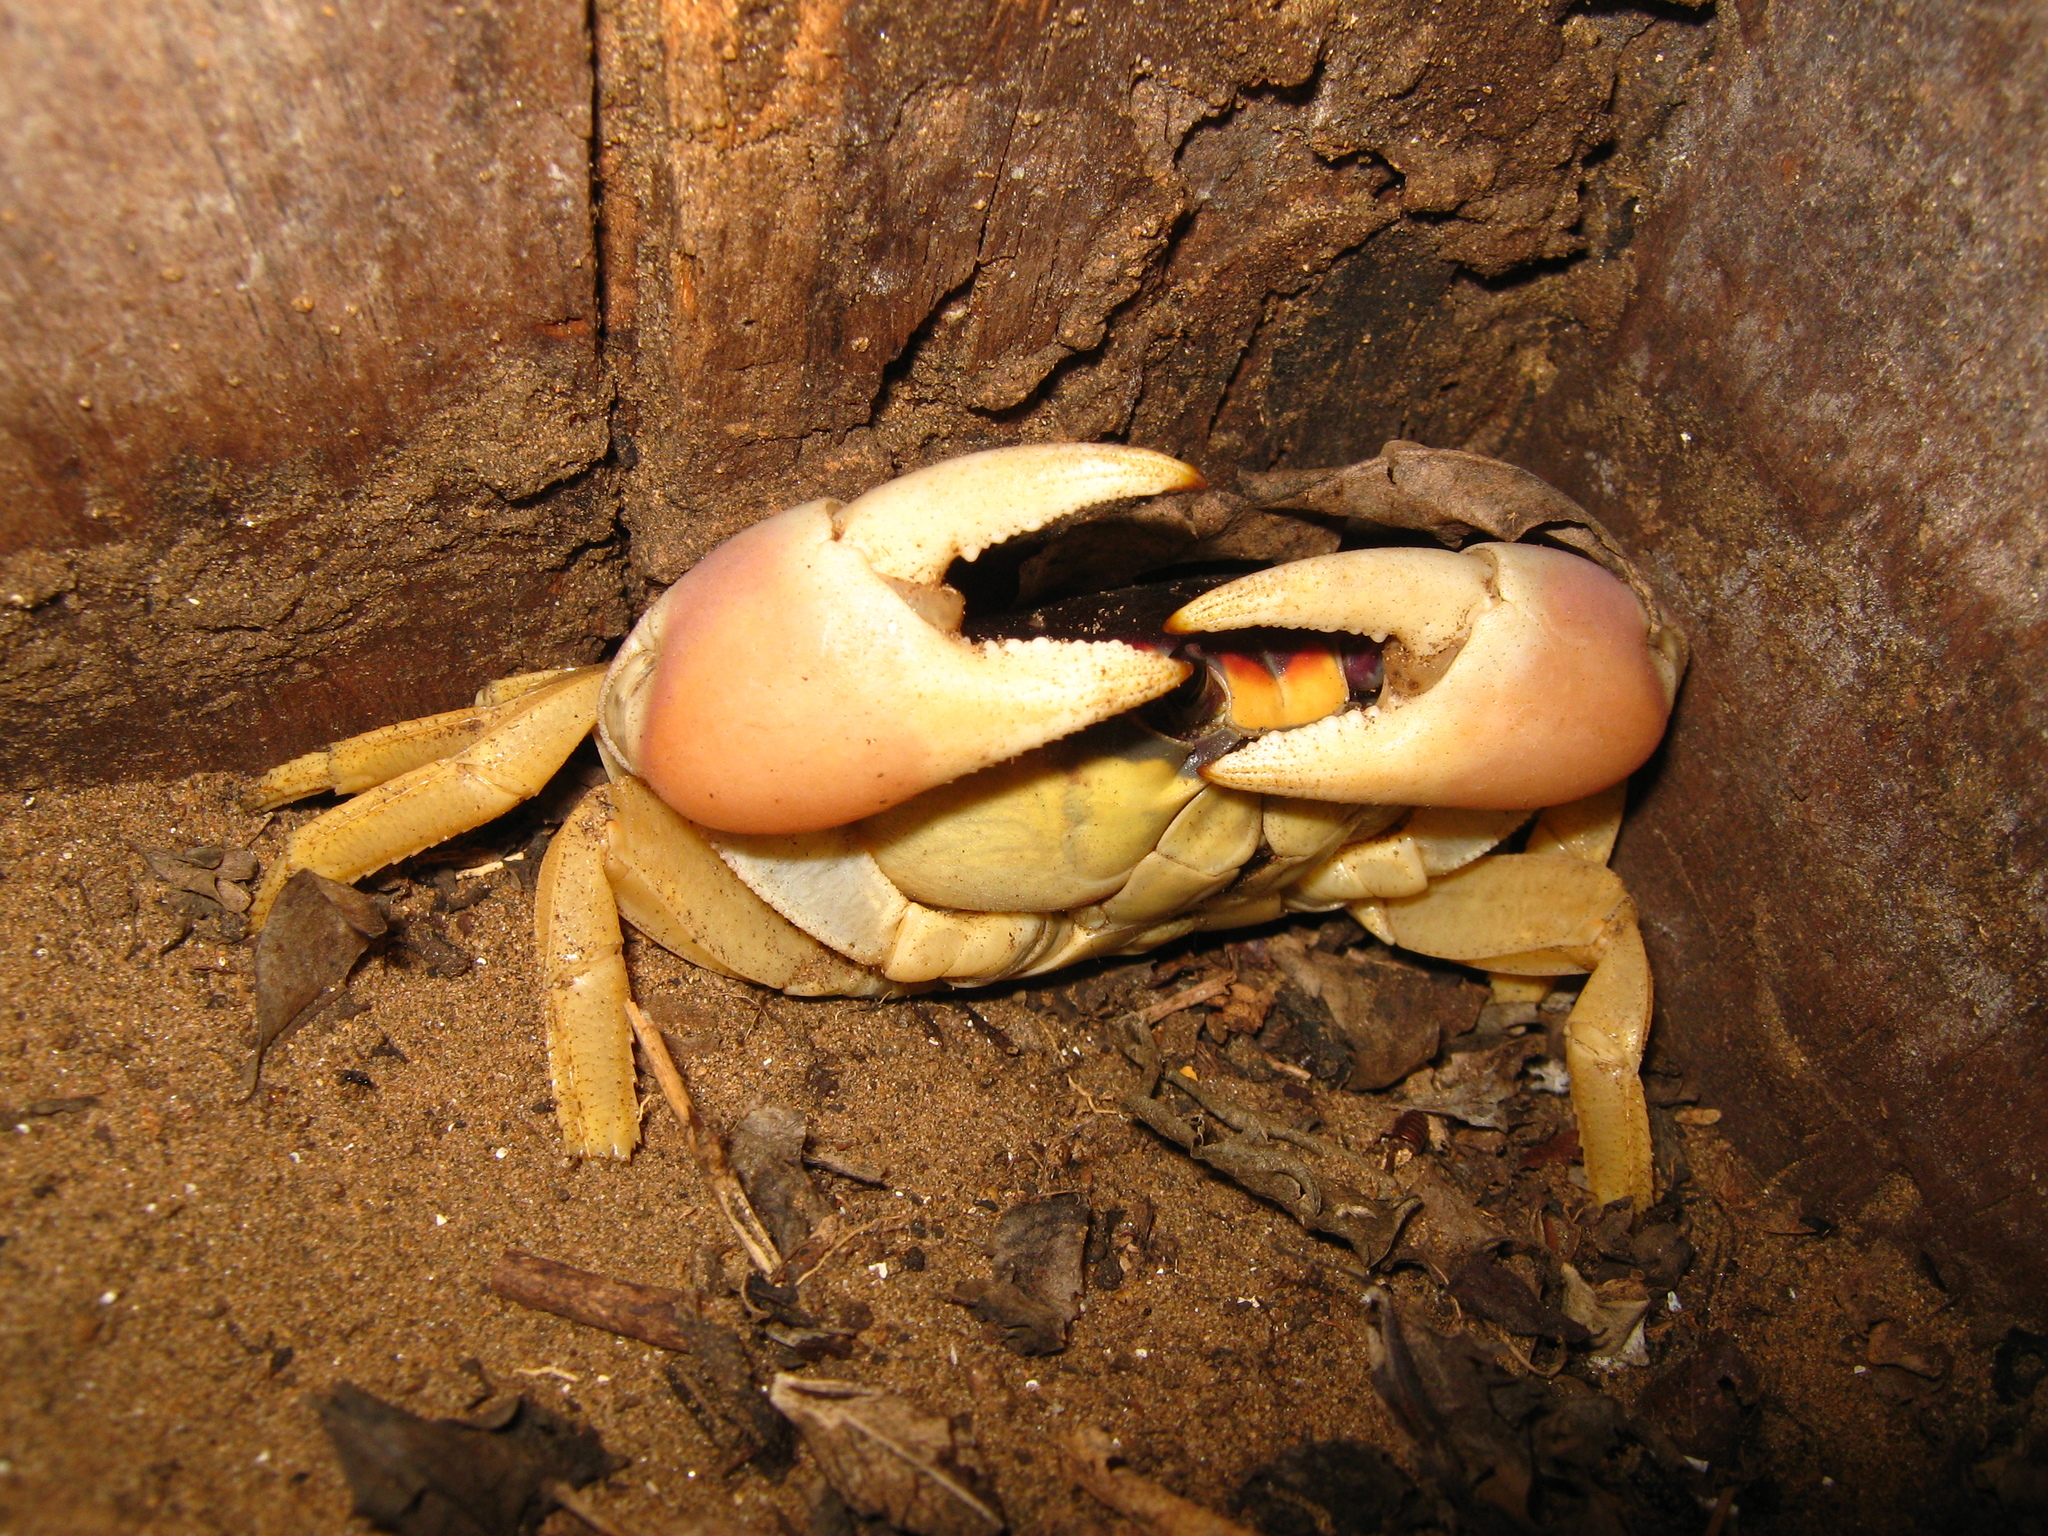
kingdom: Animalia
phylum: Arthropoda
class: Malacostraca
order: Decapoda
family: Gecarcinidae
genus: Gecarcinus
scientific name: Gecarcinus quadratus
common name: Halloween crab
